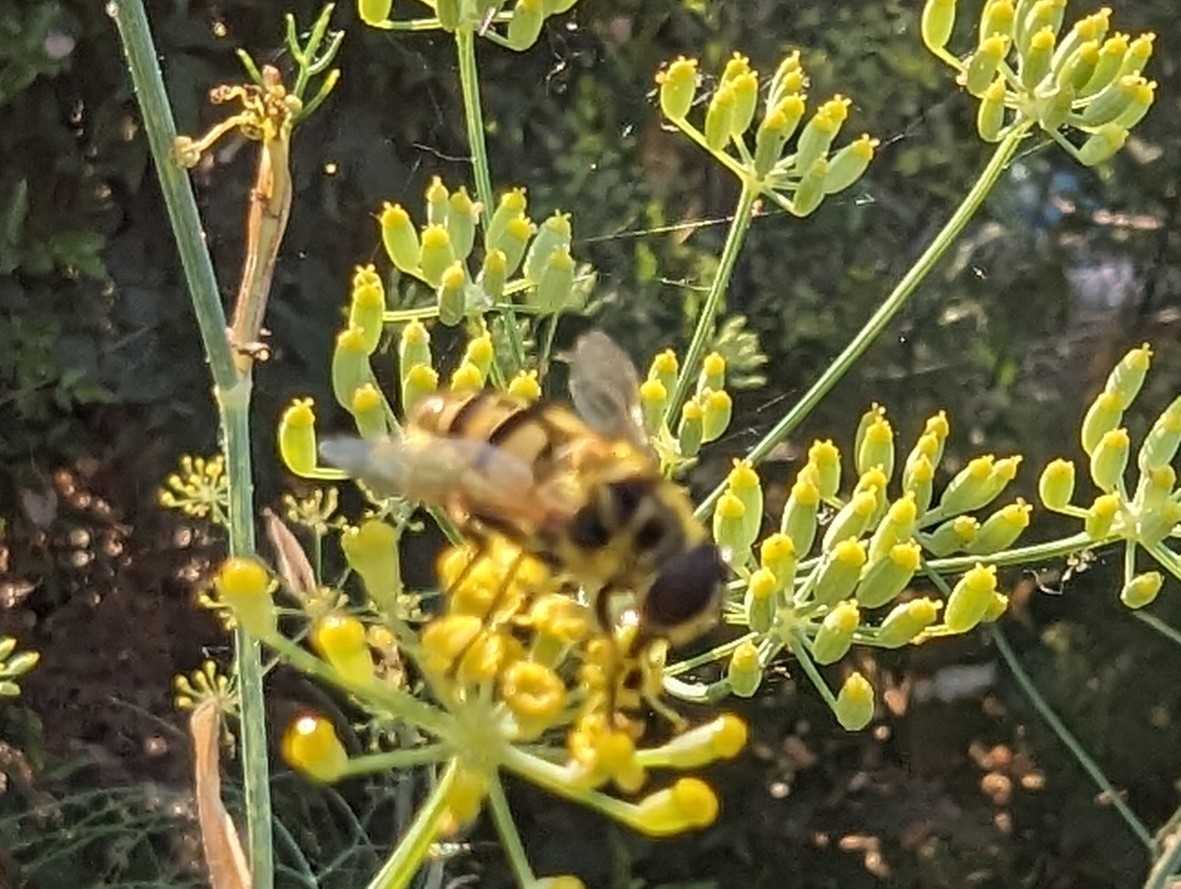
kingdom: Animalia
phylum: Arthropoda
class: Insecta
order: Diptera
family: Syrphidae
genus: Myathropa
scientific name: Myathropa florea
